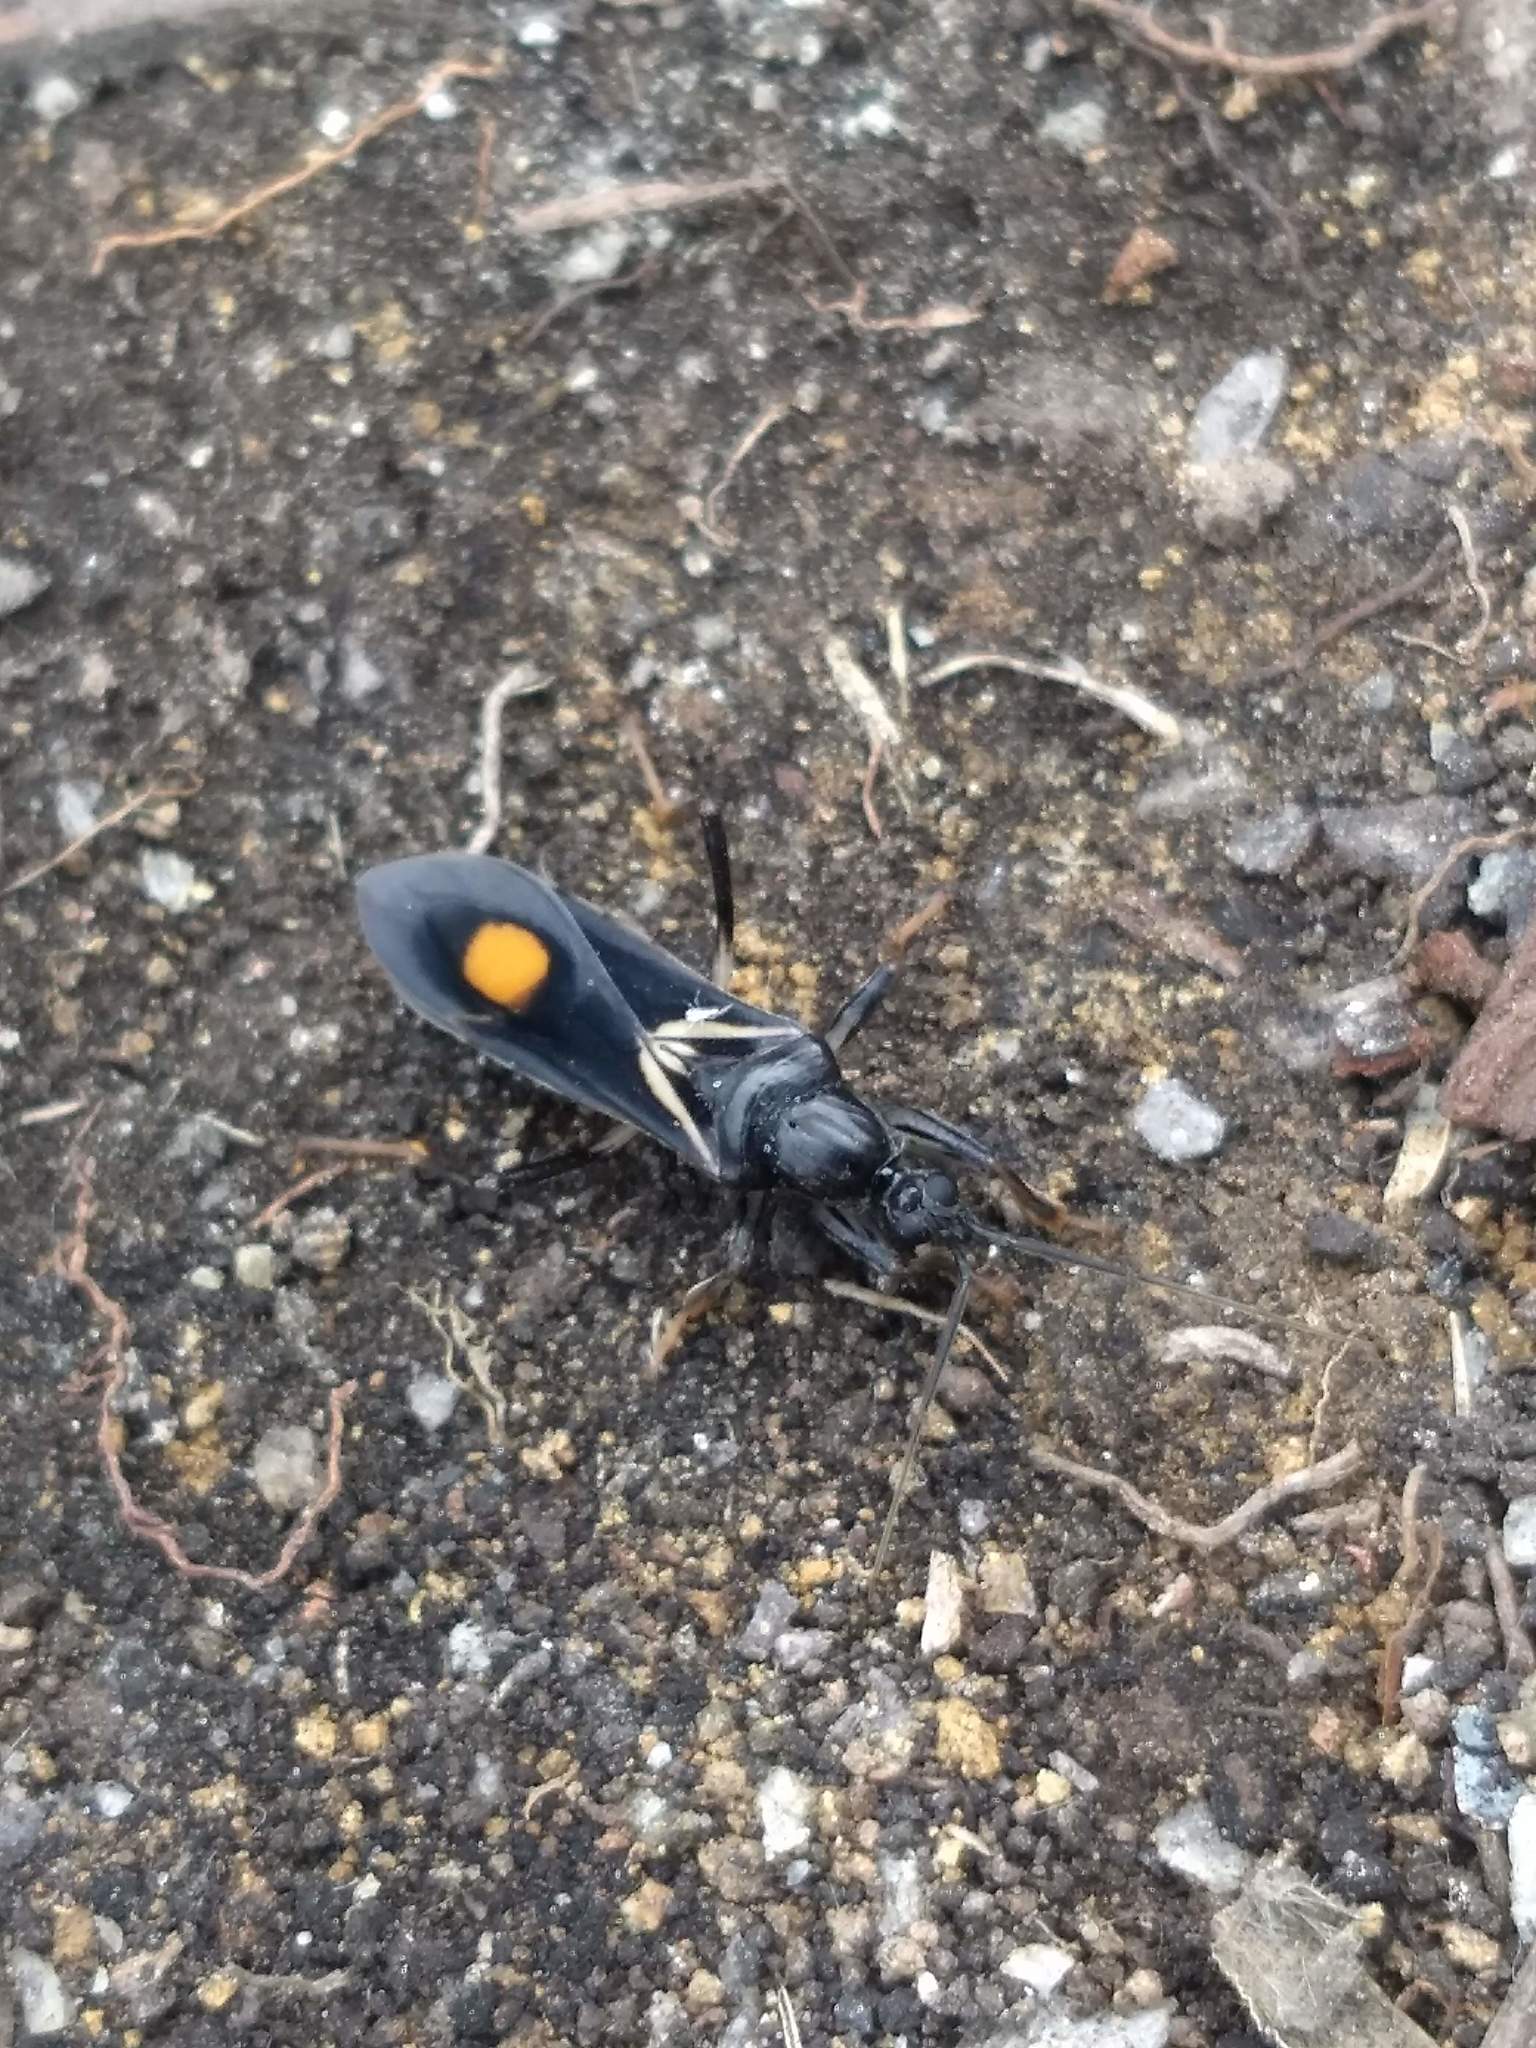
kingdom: Animalia
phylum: Arthropoda
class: Insecta
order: Hemiptera
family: Reduviidae
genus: Rasahus
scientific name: Rasahus hamatus
